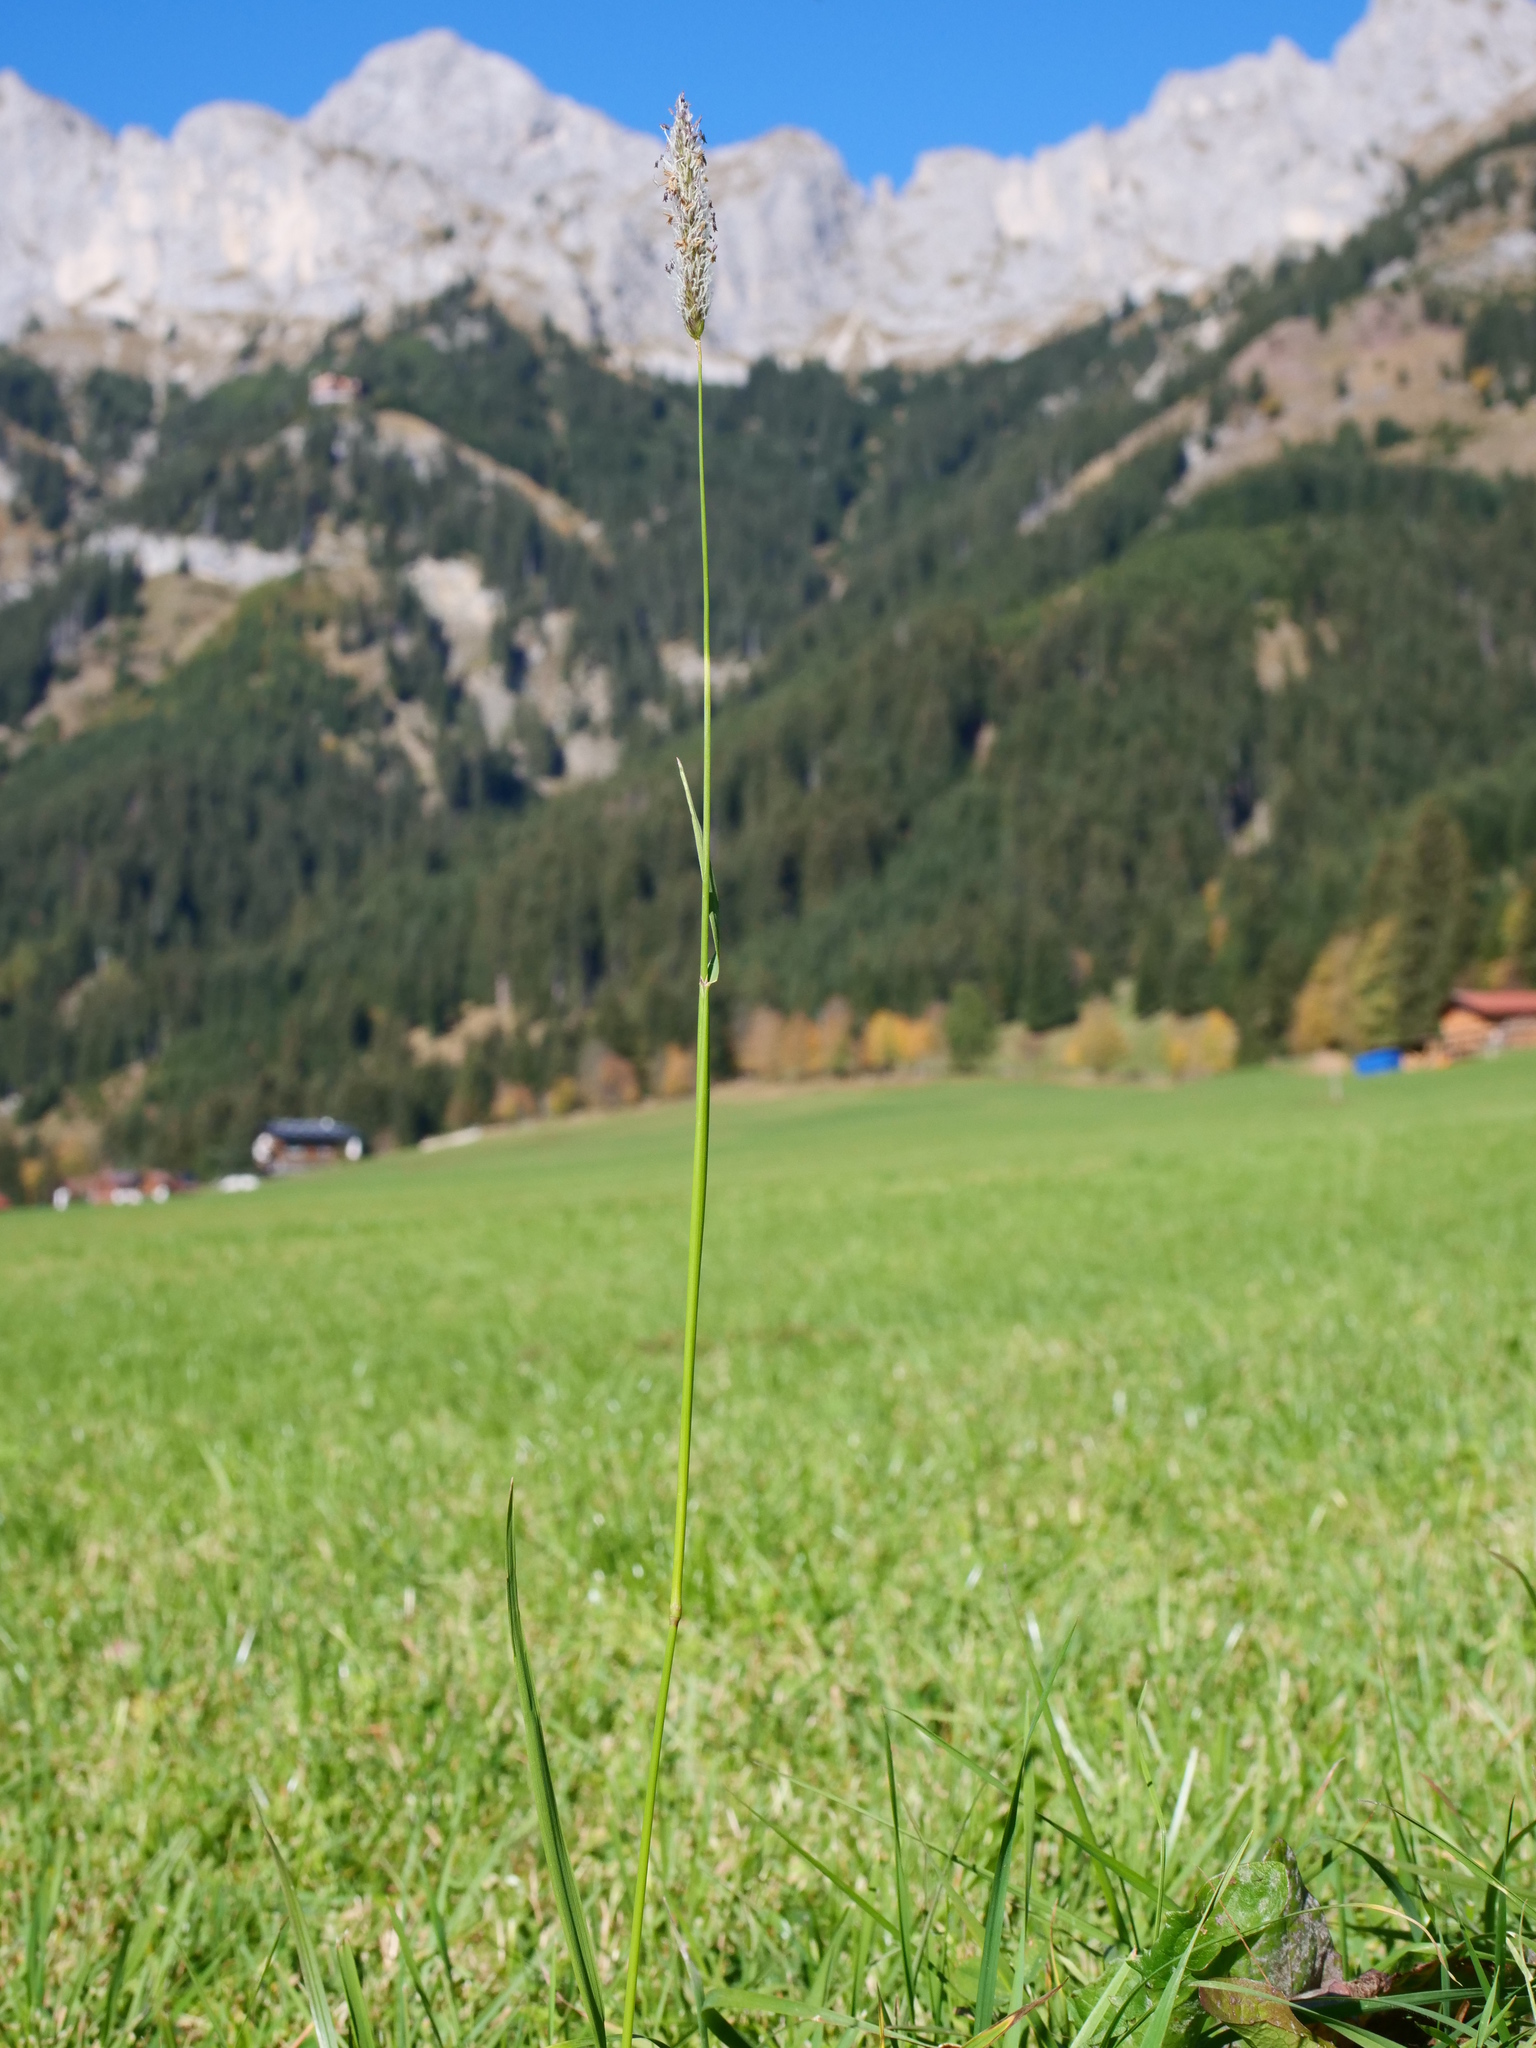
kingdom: Plantae
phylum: Tracheophyta
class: Liliopsida
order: Poales
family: Poaceae
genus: Alopecurus
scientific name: Alopecurus pratensis
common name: Meadow foxtail
